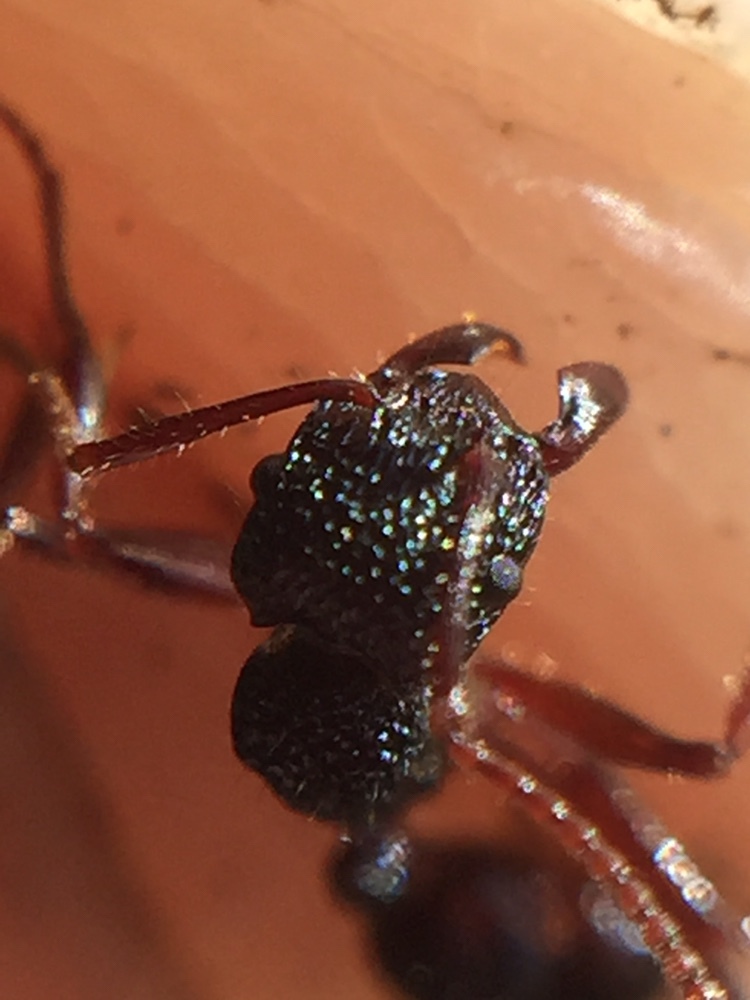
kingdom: Animalia
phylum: Arthropoda
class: Insecta
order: Hymenoptera
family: Formicidae
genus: Rhytidoponera
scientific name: Rhytidoponera chalybaea
